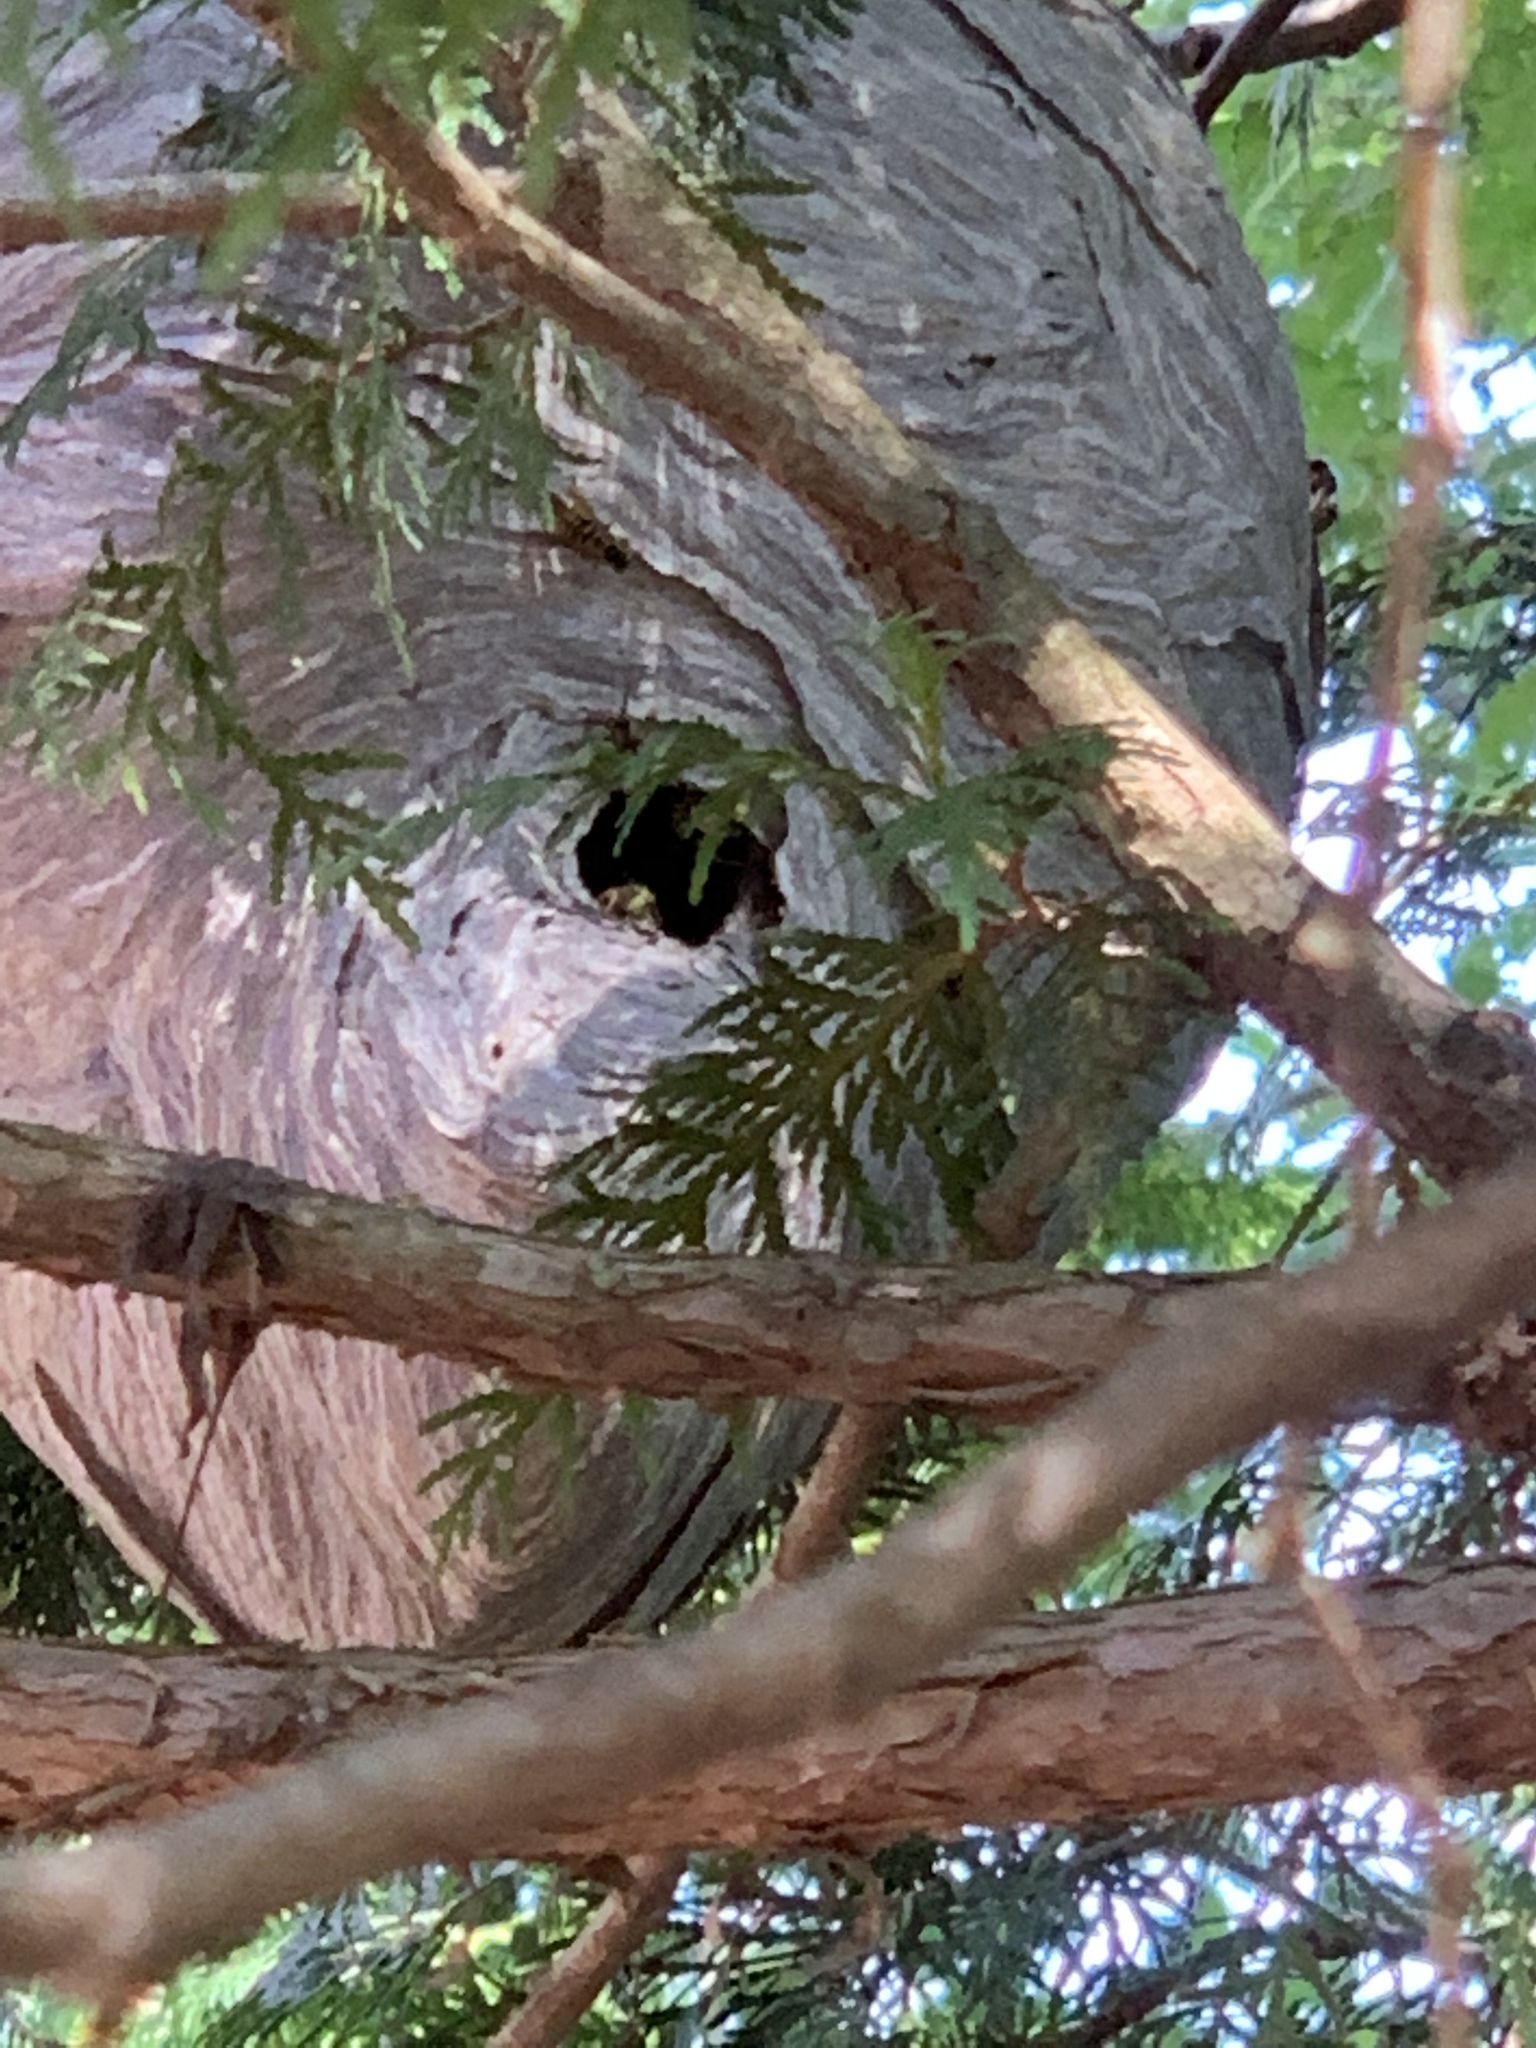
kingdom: Animalia
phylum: Arthropoda
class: Insecta
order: Hymenoptera
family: Vespidae
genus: Dolichovespula
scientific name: Dolichovespula arenaria
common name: Aerial yellowjacket
